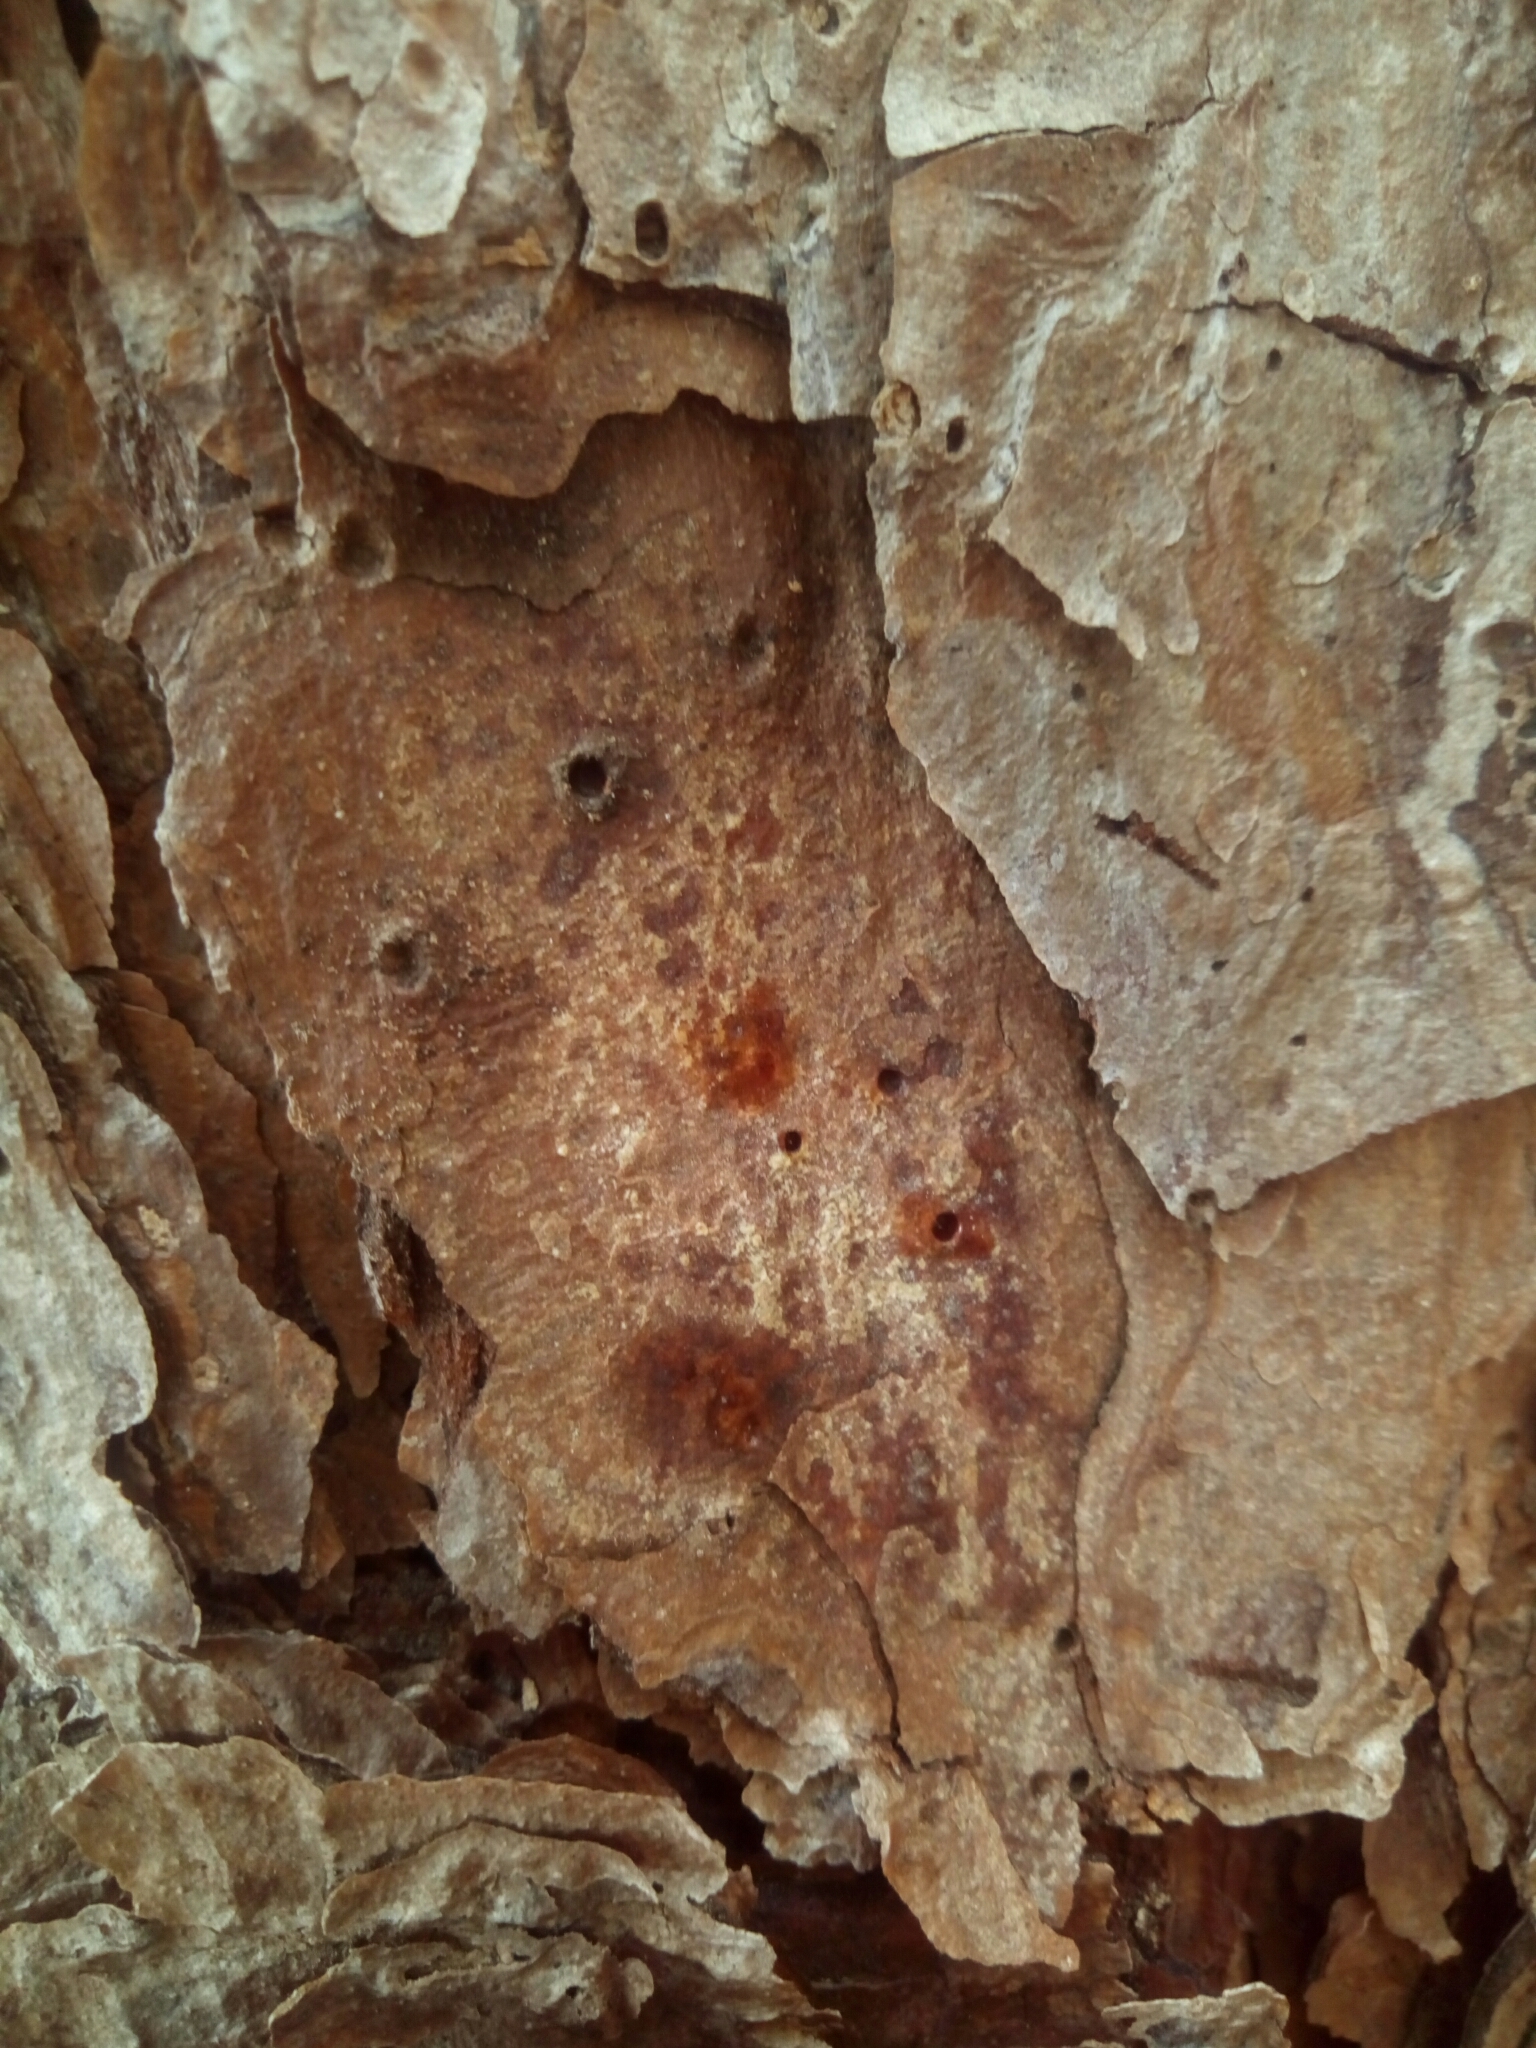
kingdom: Plantae
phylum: Tracheophyta
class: Pinopsida
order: Pinales
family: Pinaceae
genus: Pinus
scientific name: Pinus echinata
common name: Shortleaf pine
